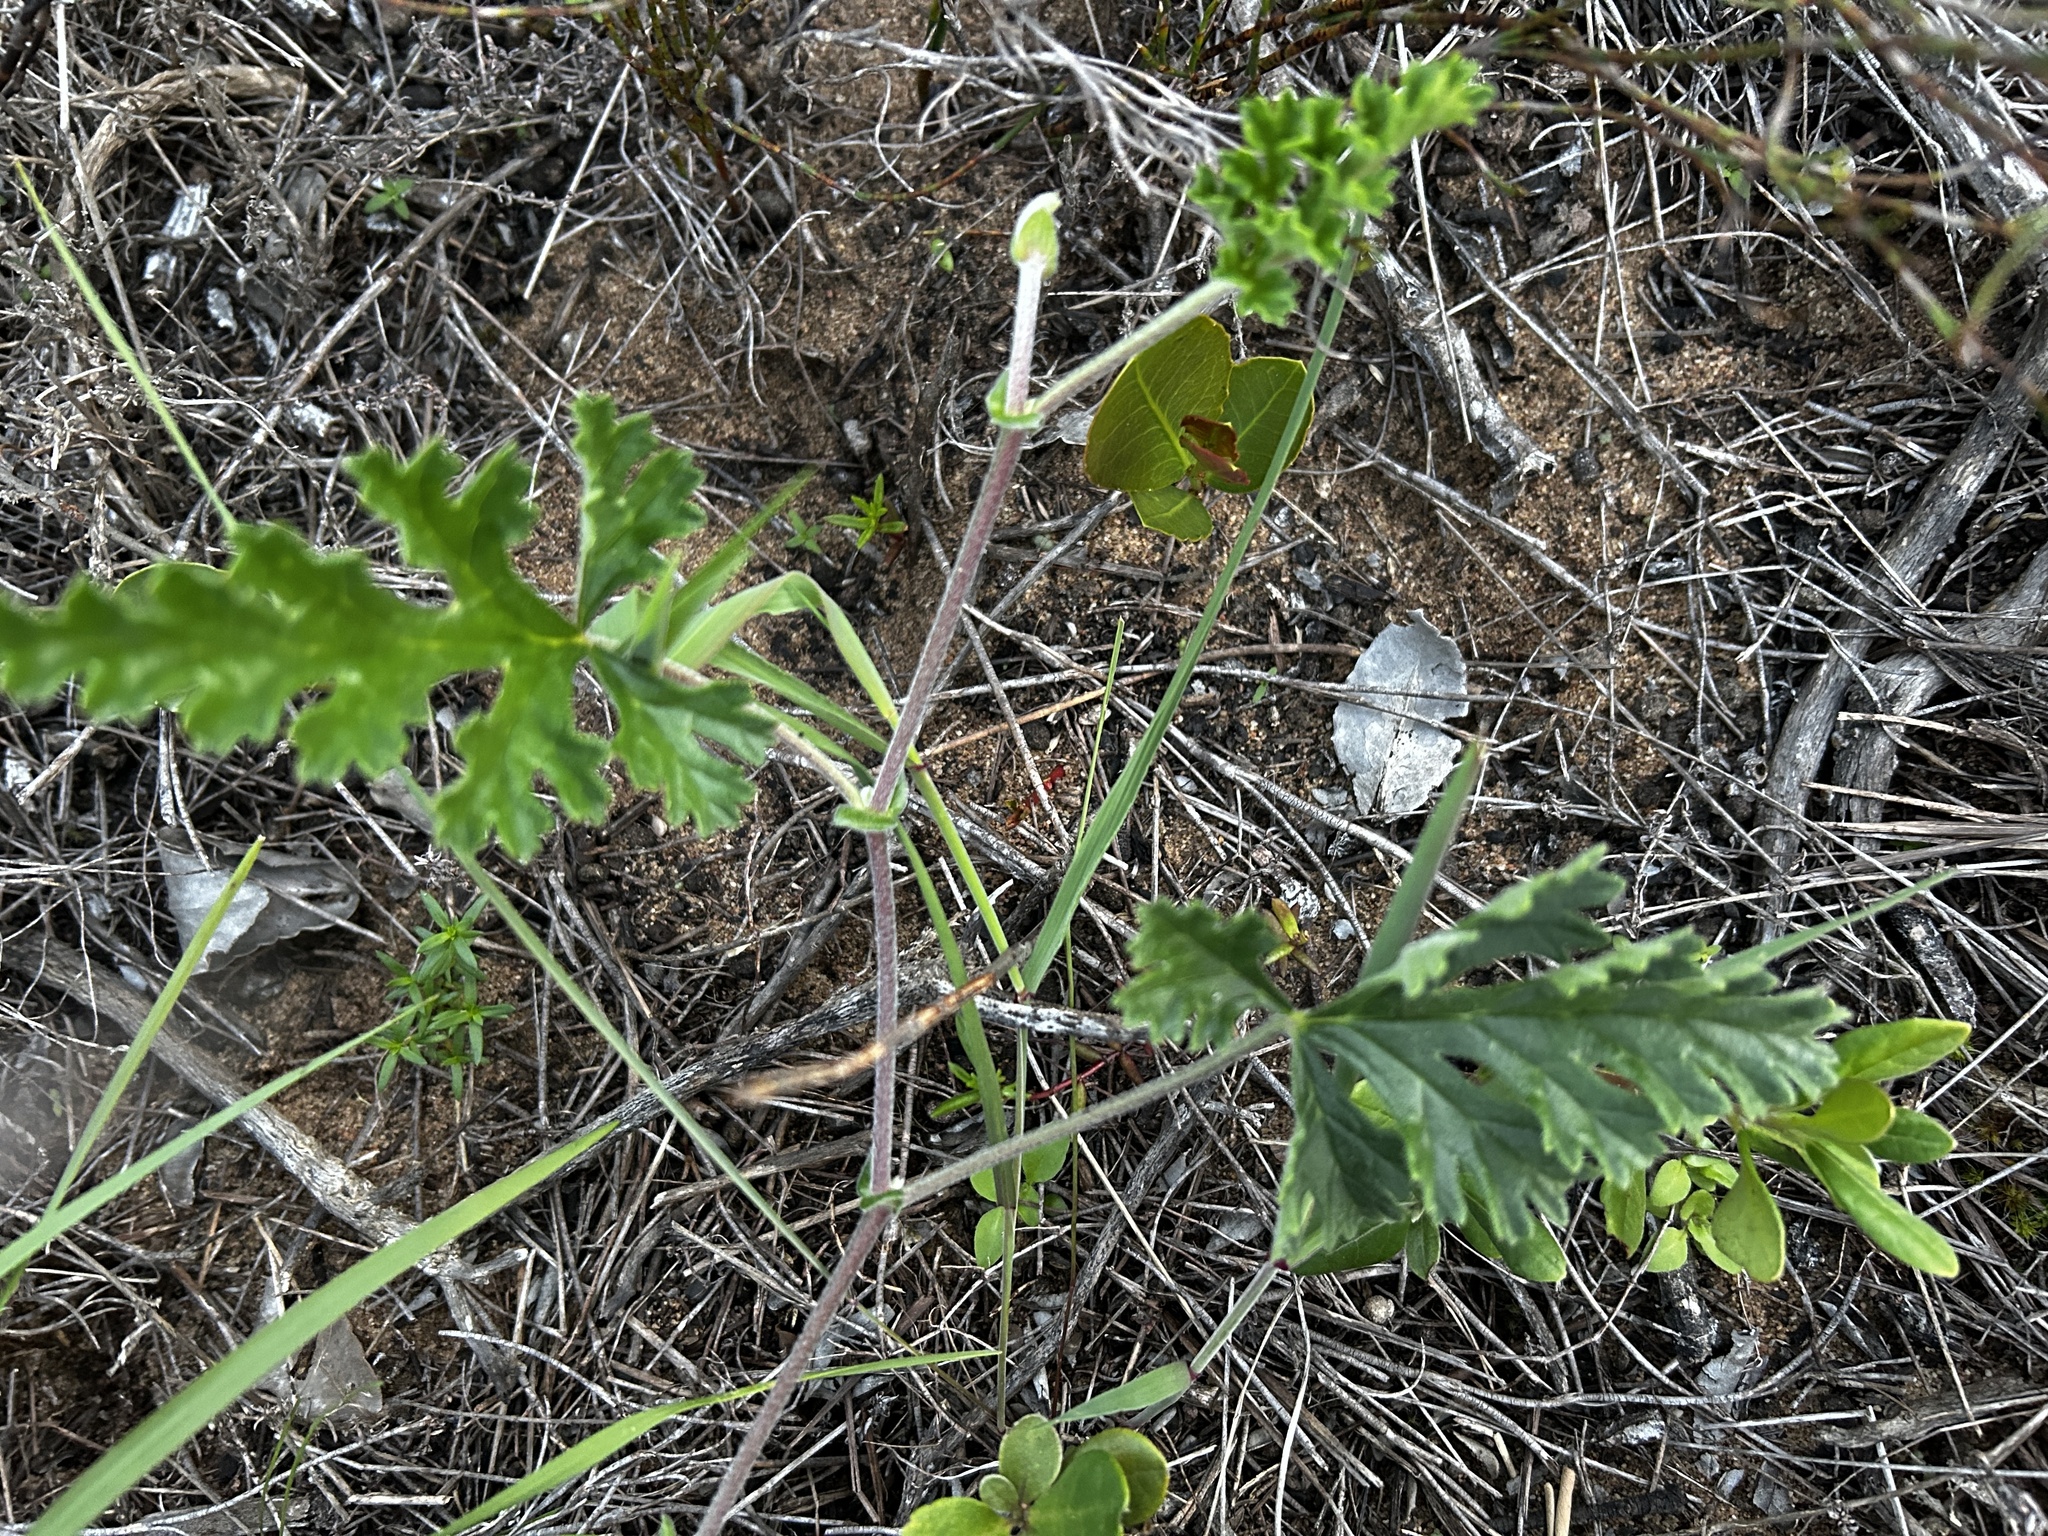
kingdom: Plantae
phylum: Tracheophyta
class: Magnoliopsida
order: Geraniales
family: Geraniaceae
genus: Pelargonium
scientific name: Pelargonium suburbanum
